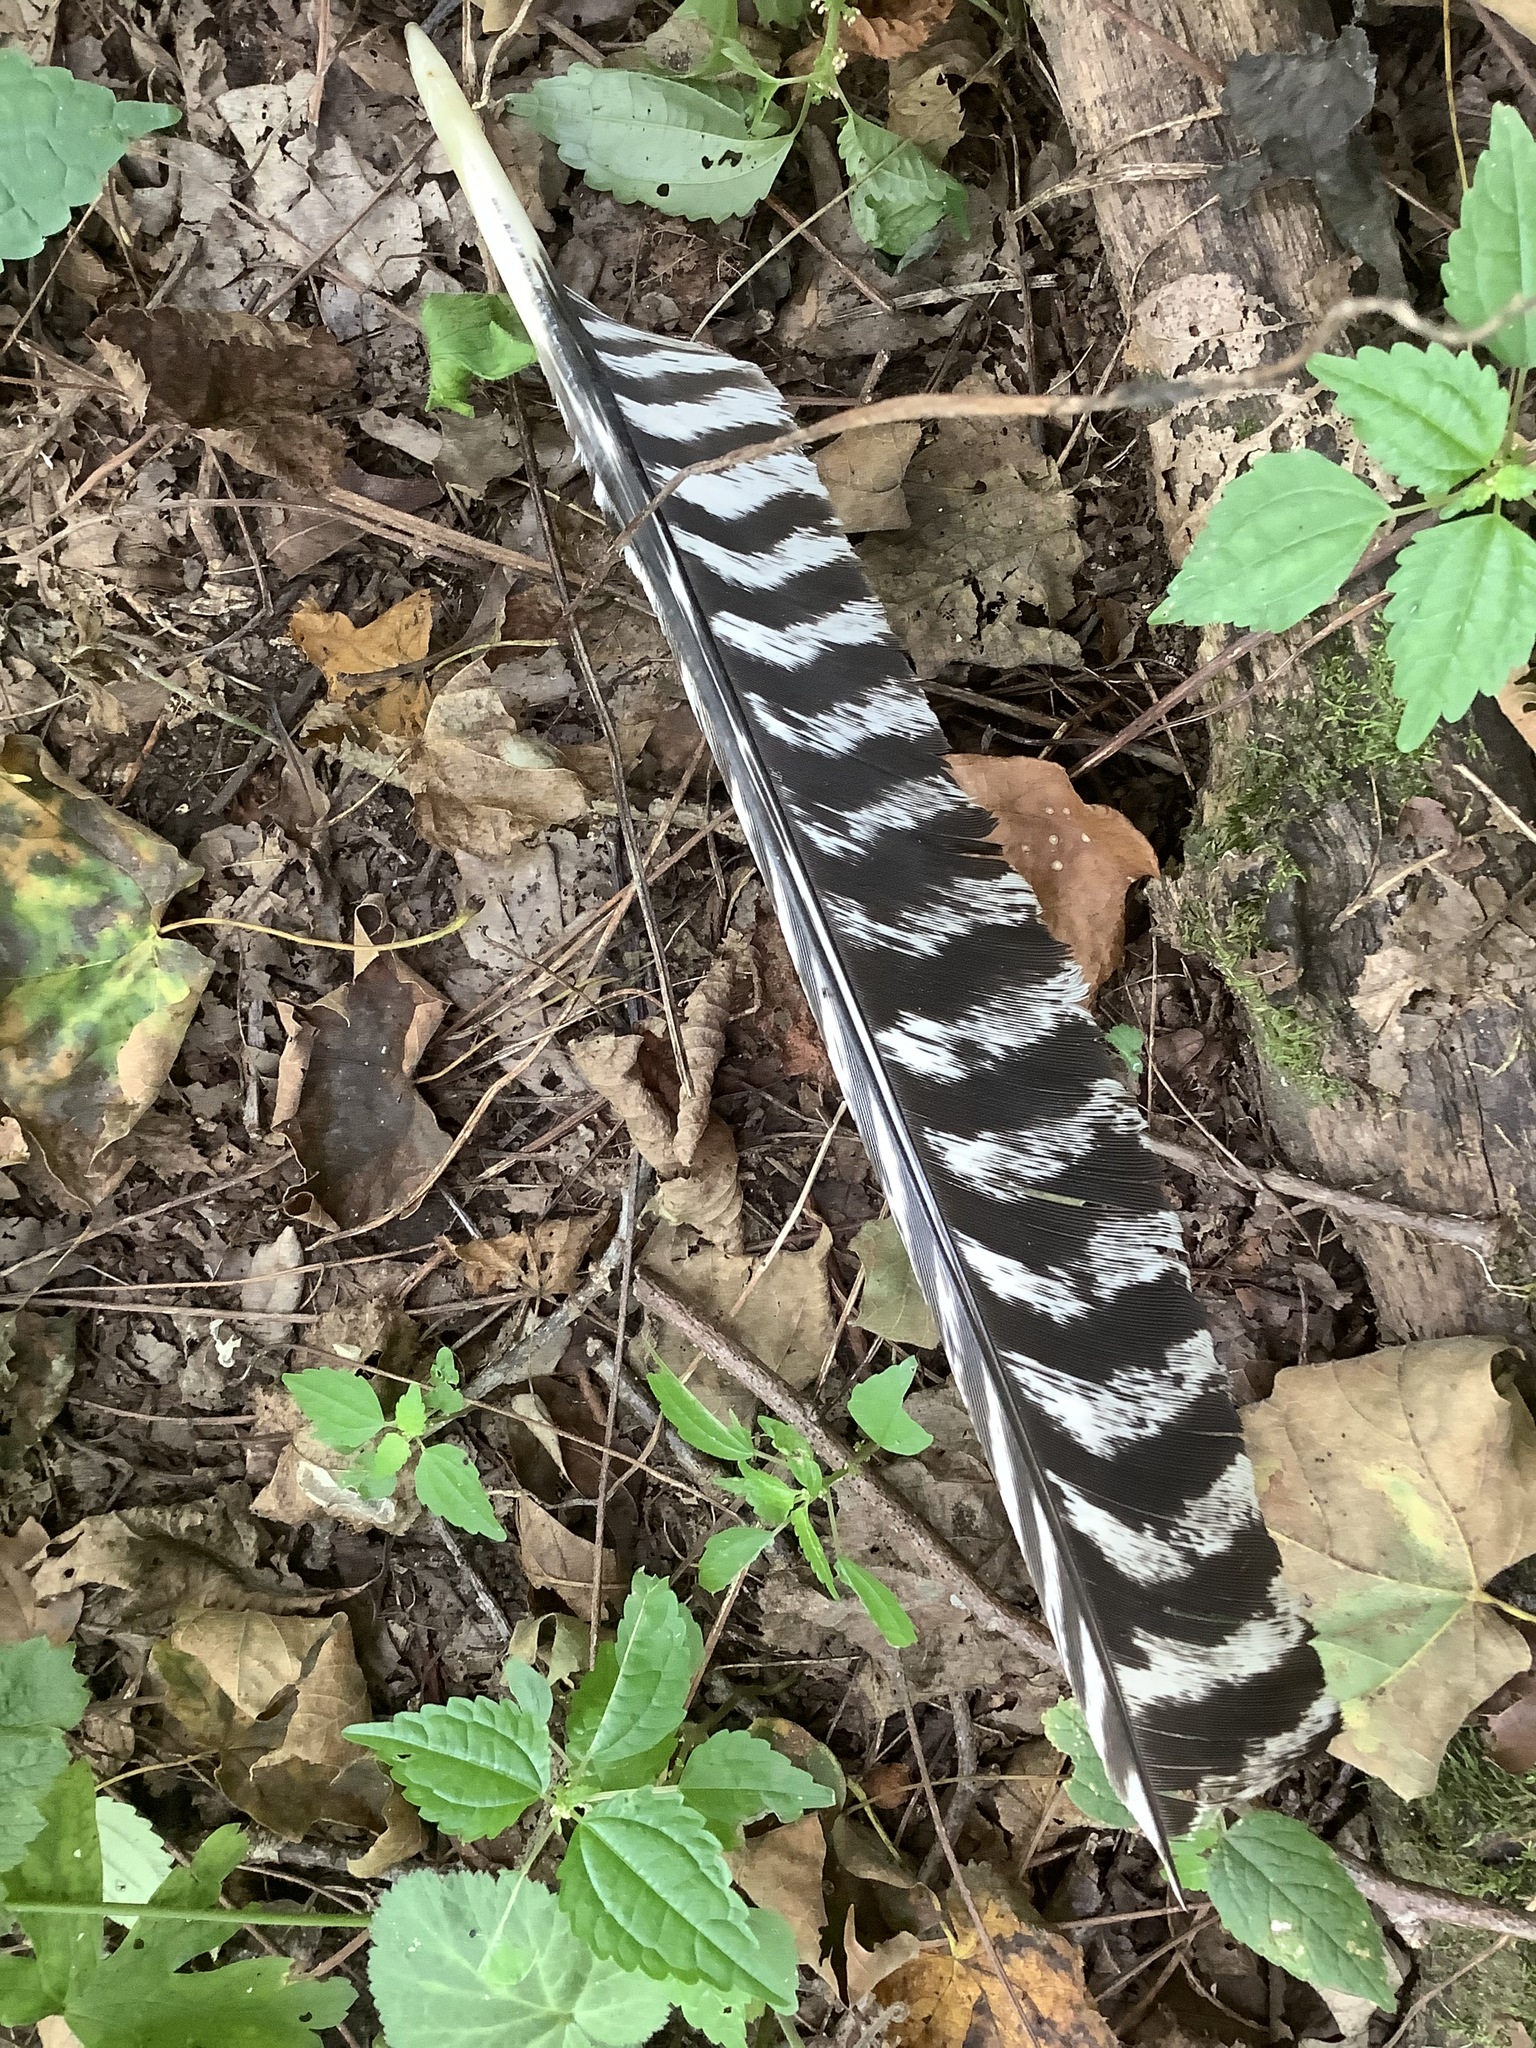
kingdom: Animalia
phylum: Chordata
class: Aves
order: Galliformes
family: Phasianidae
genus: Meleagris
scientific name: Meleagris gallopavo
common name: Wild turkey
